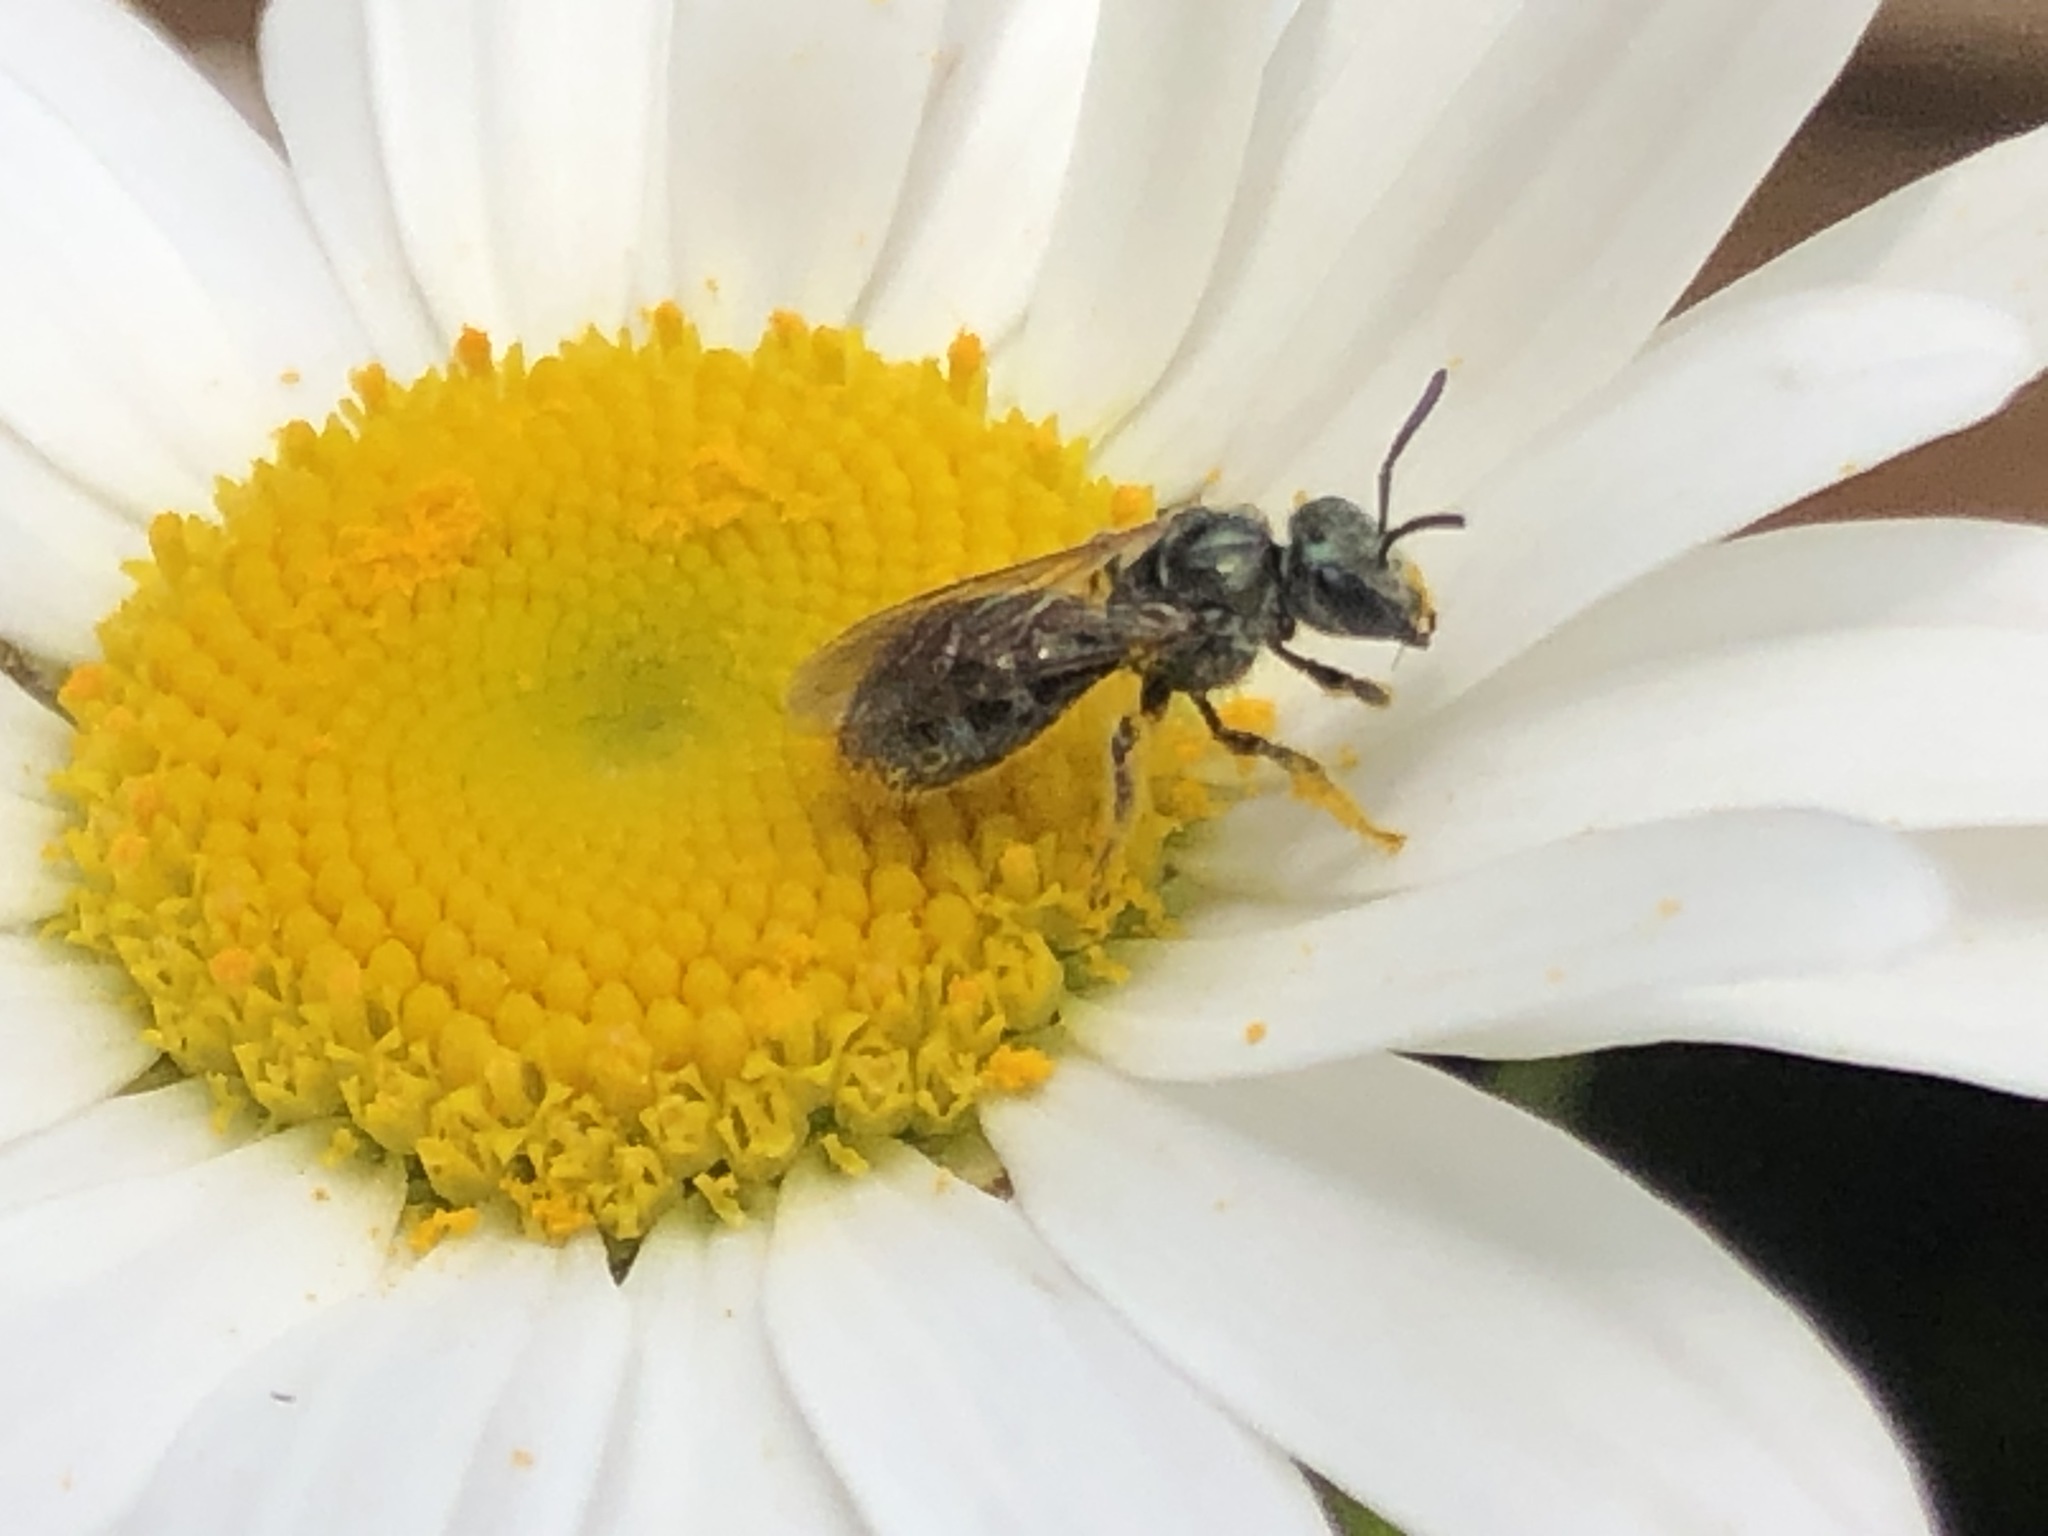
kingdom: Animalia
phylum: Arthropoda
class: Insecta
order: Hymenoptera
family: Halictidae
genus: Dialictus
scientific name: Dialictus
